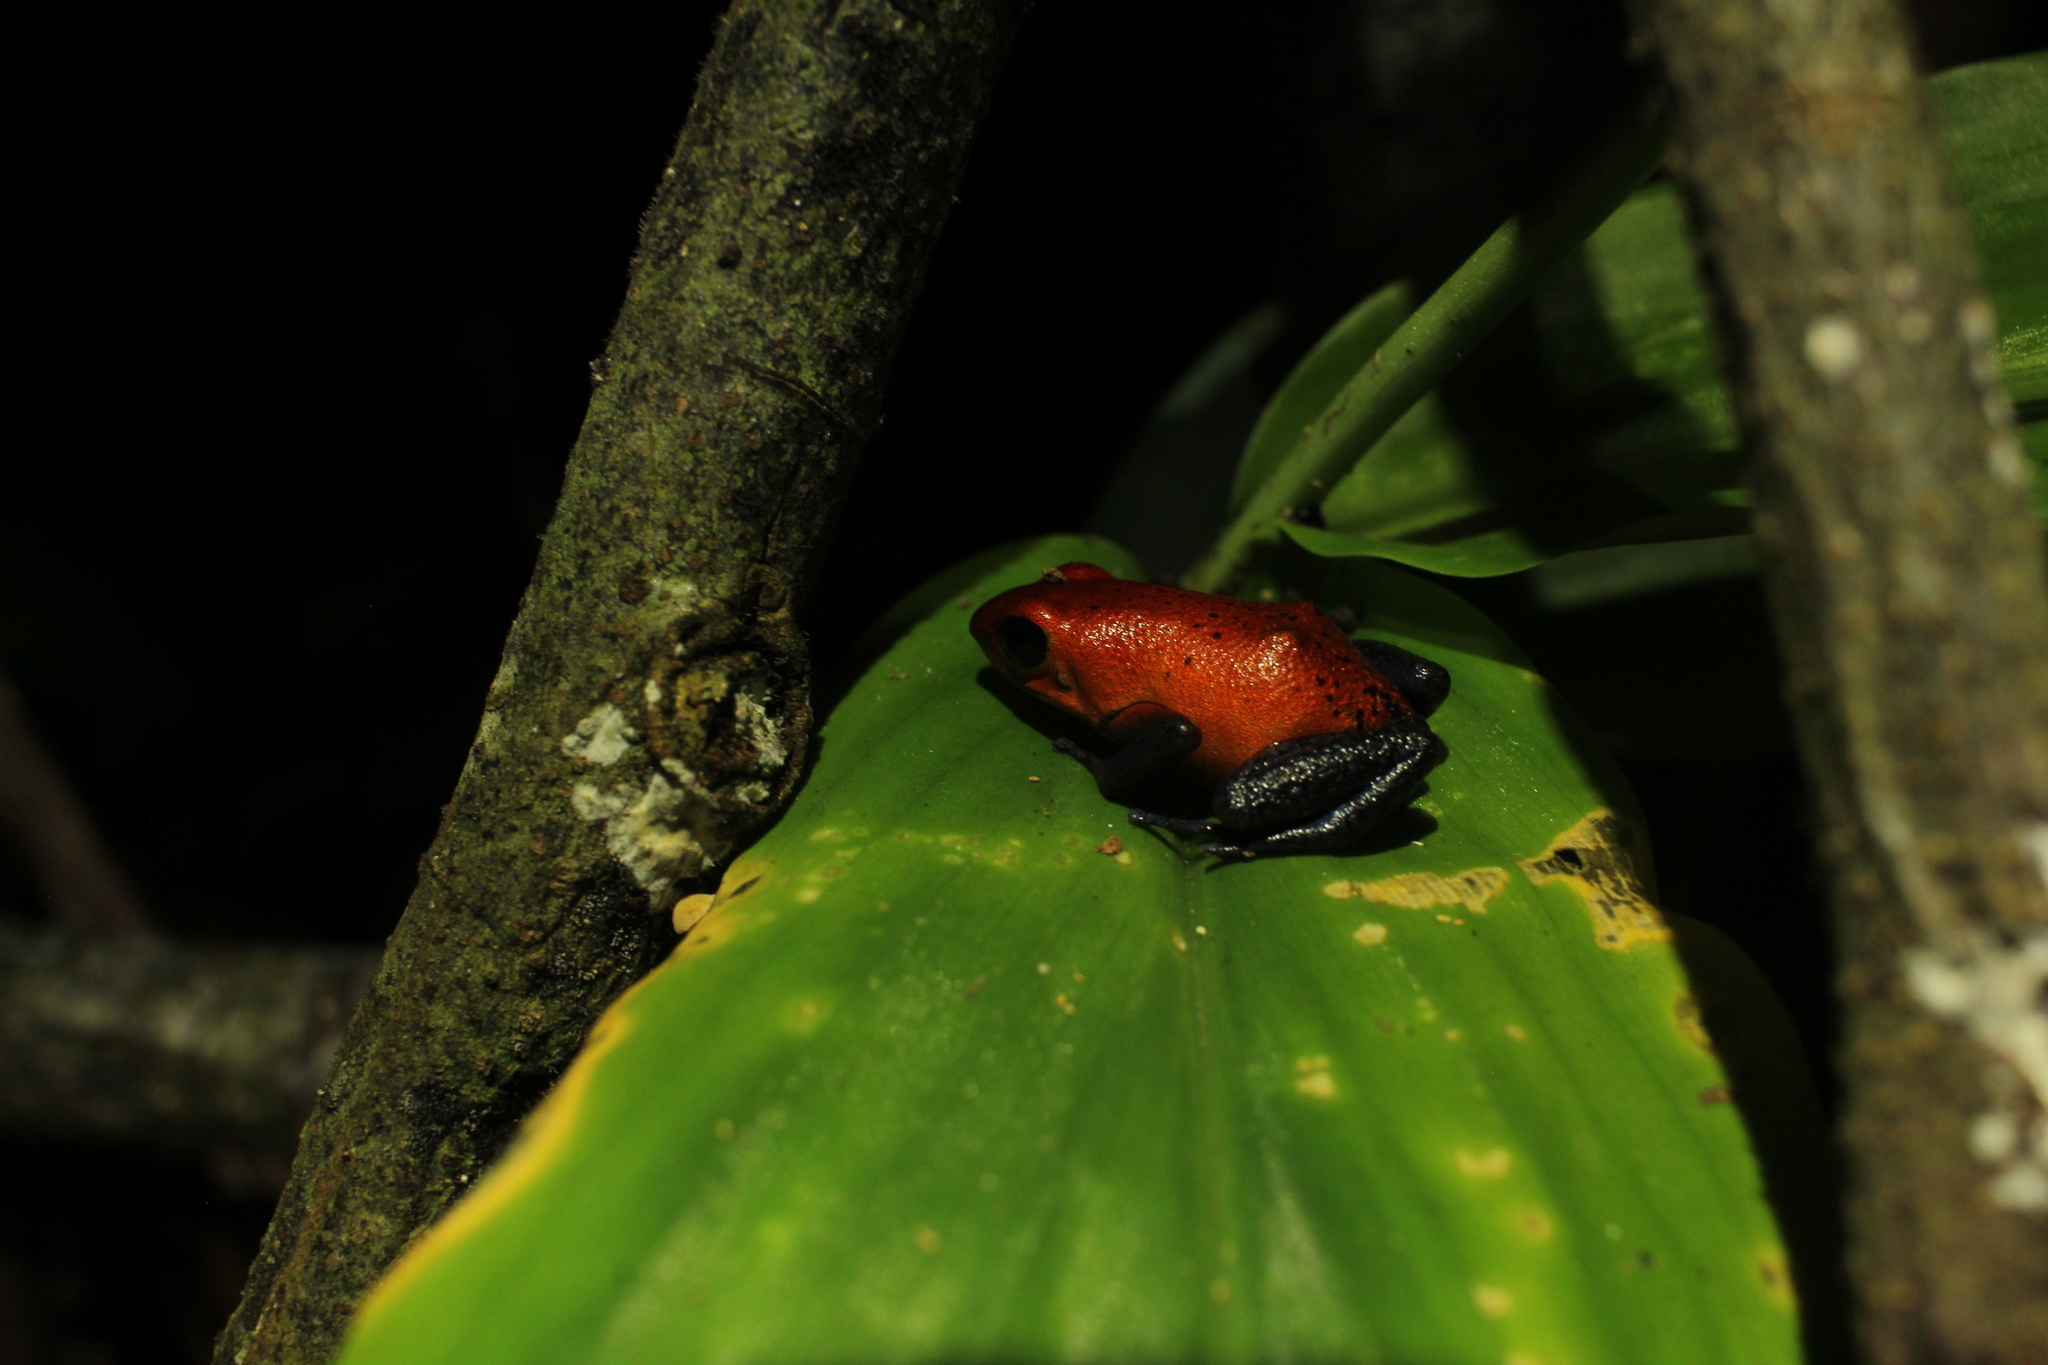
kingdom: Animalia
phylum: Chordata
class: Amphibia
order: Anura
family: Dendrobatidae
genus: Oophaga
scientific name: Oophaga pumilio
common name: Flaming poison frog
